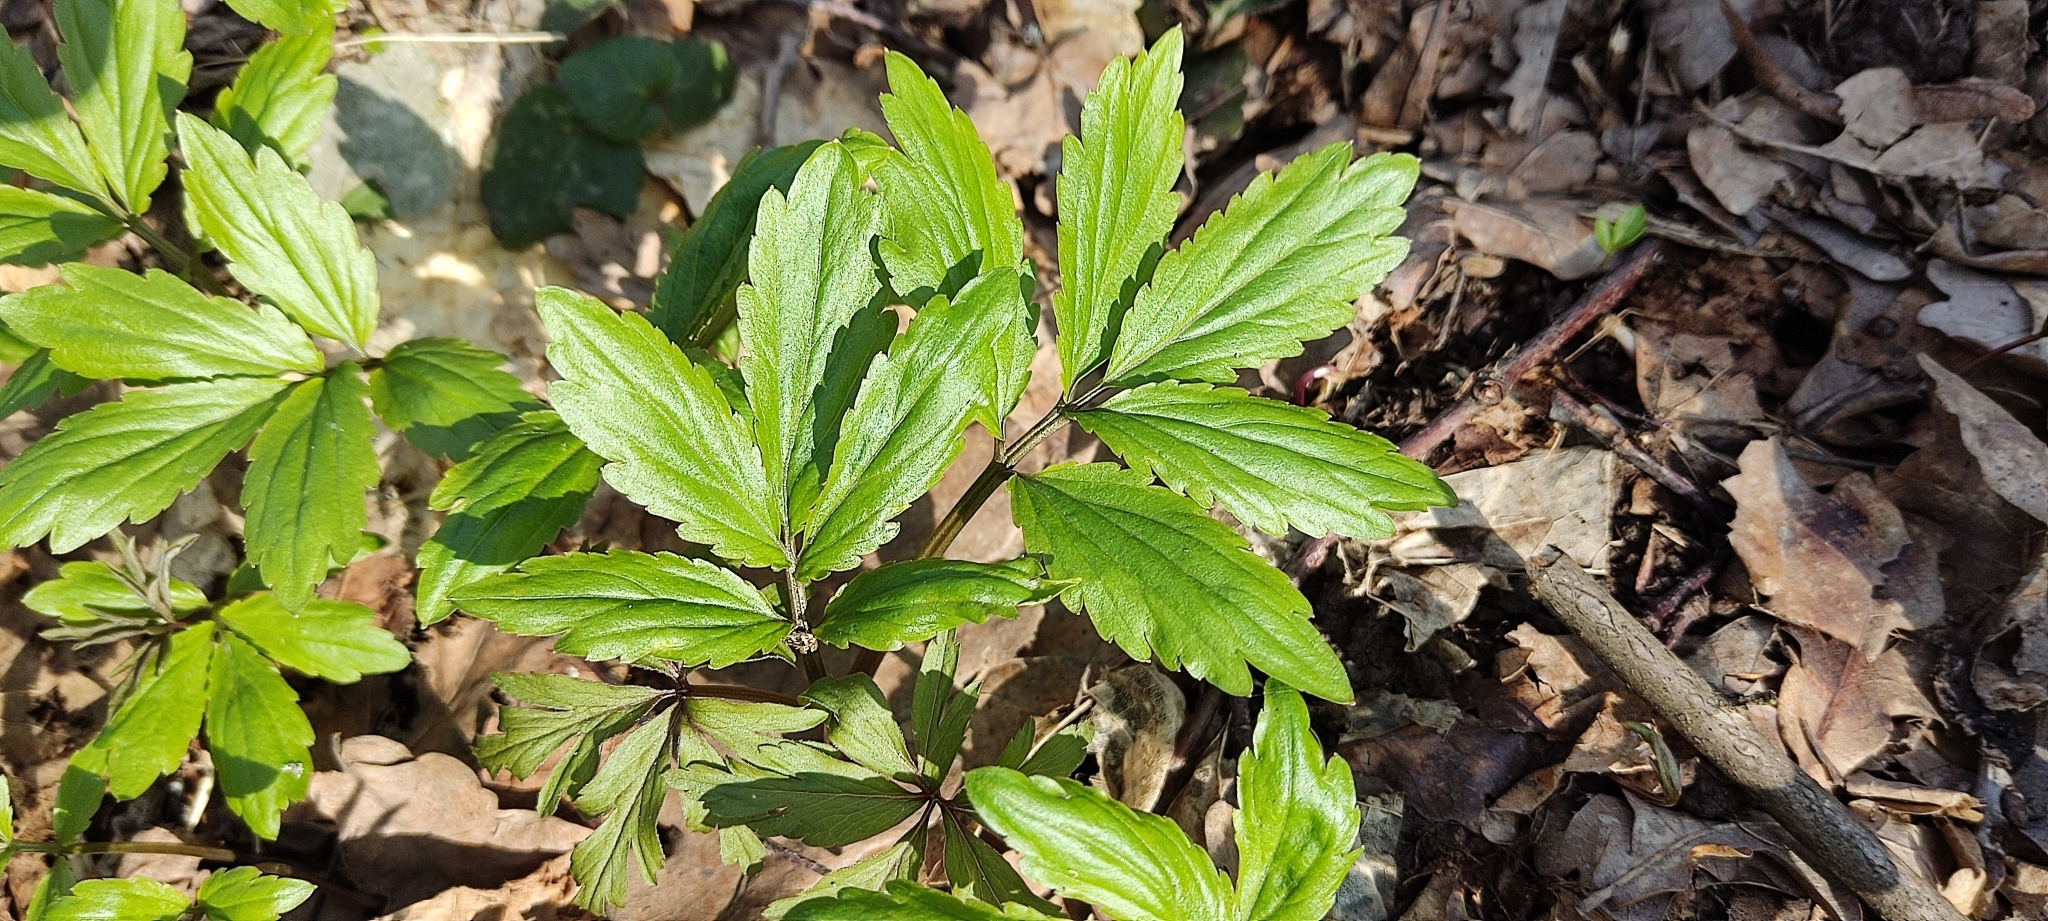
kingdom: Plantae
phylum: Tracheophyta
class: Magnoliopsida
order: Brassicales
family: Brassicaceae
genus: Cardamine
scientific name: Cardamine quinquefolia
